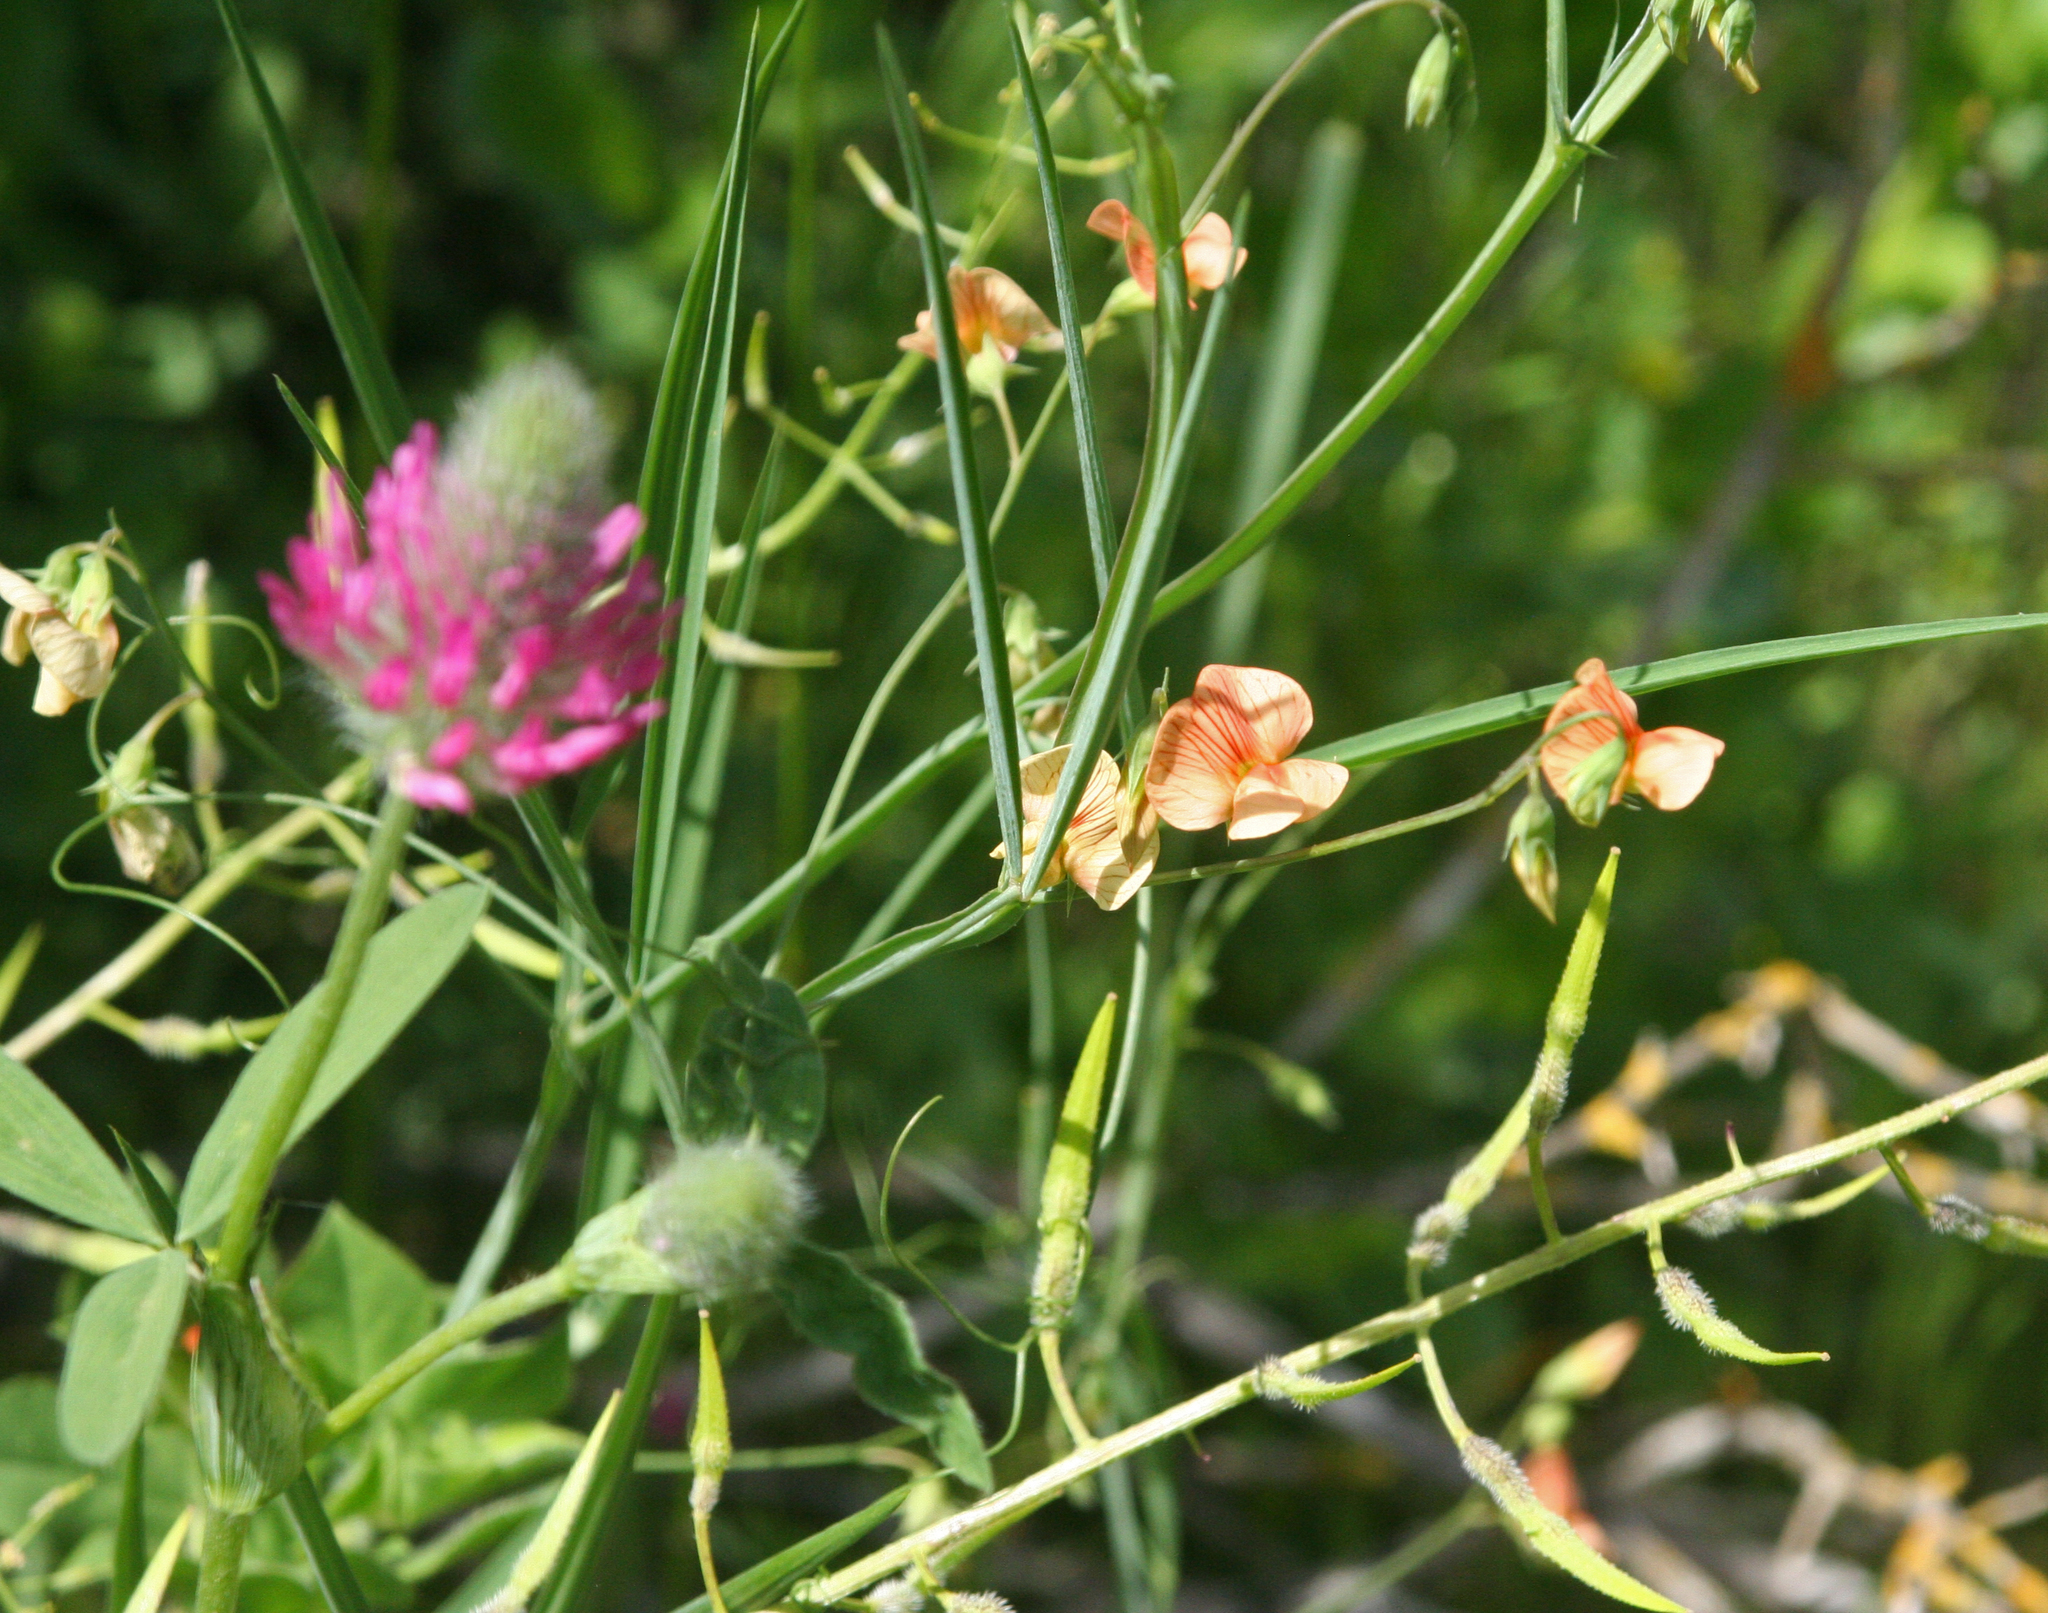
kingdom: Plantae
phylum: Tracheophyta
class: Magnoliopsida
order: Fabales
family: Fabaceae
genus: Lathyrus
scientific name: Lathyrus hierosolymitanus
